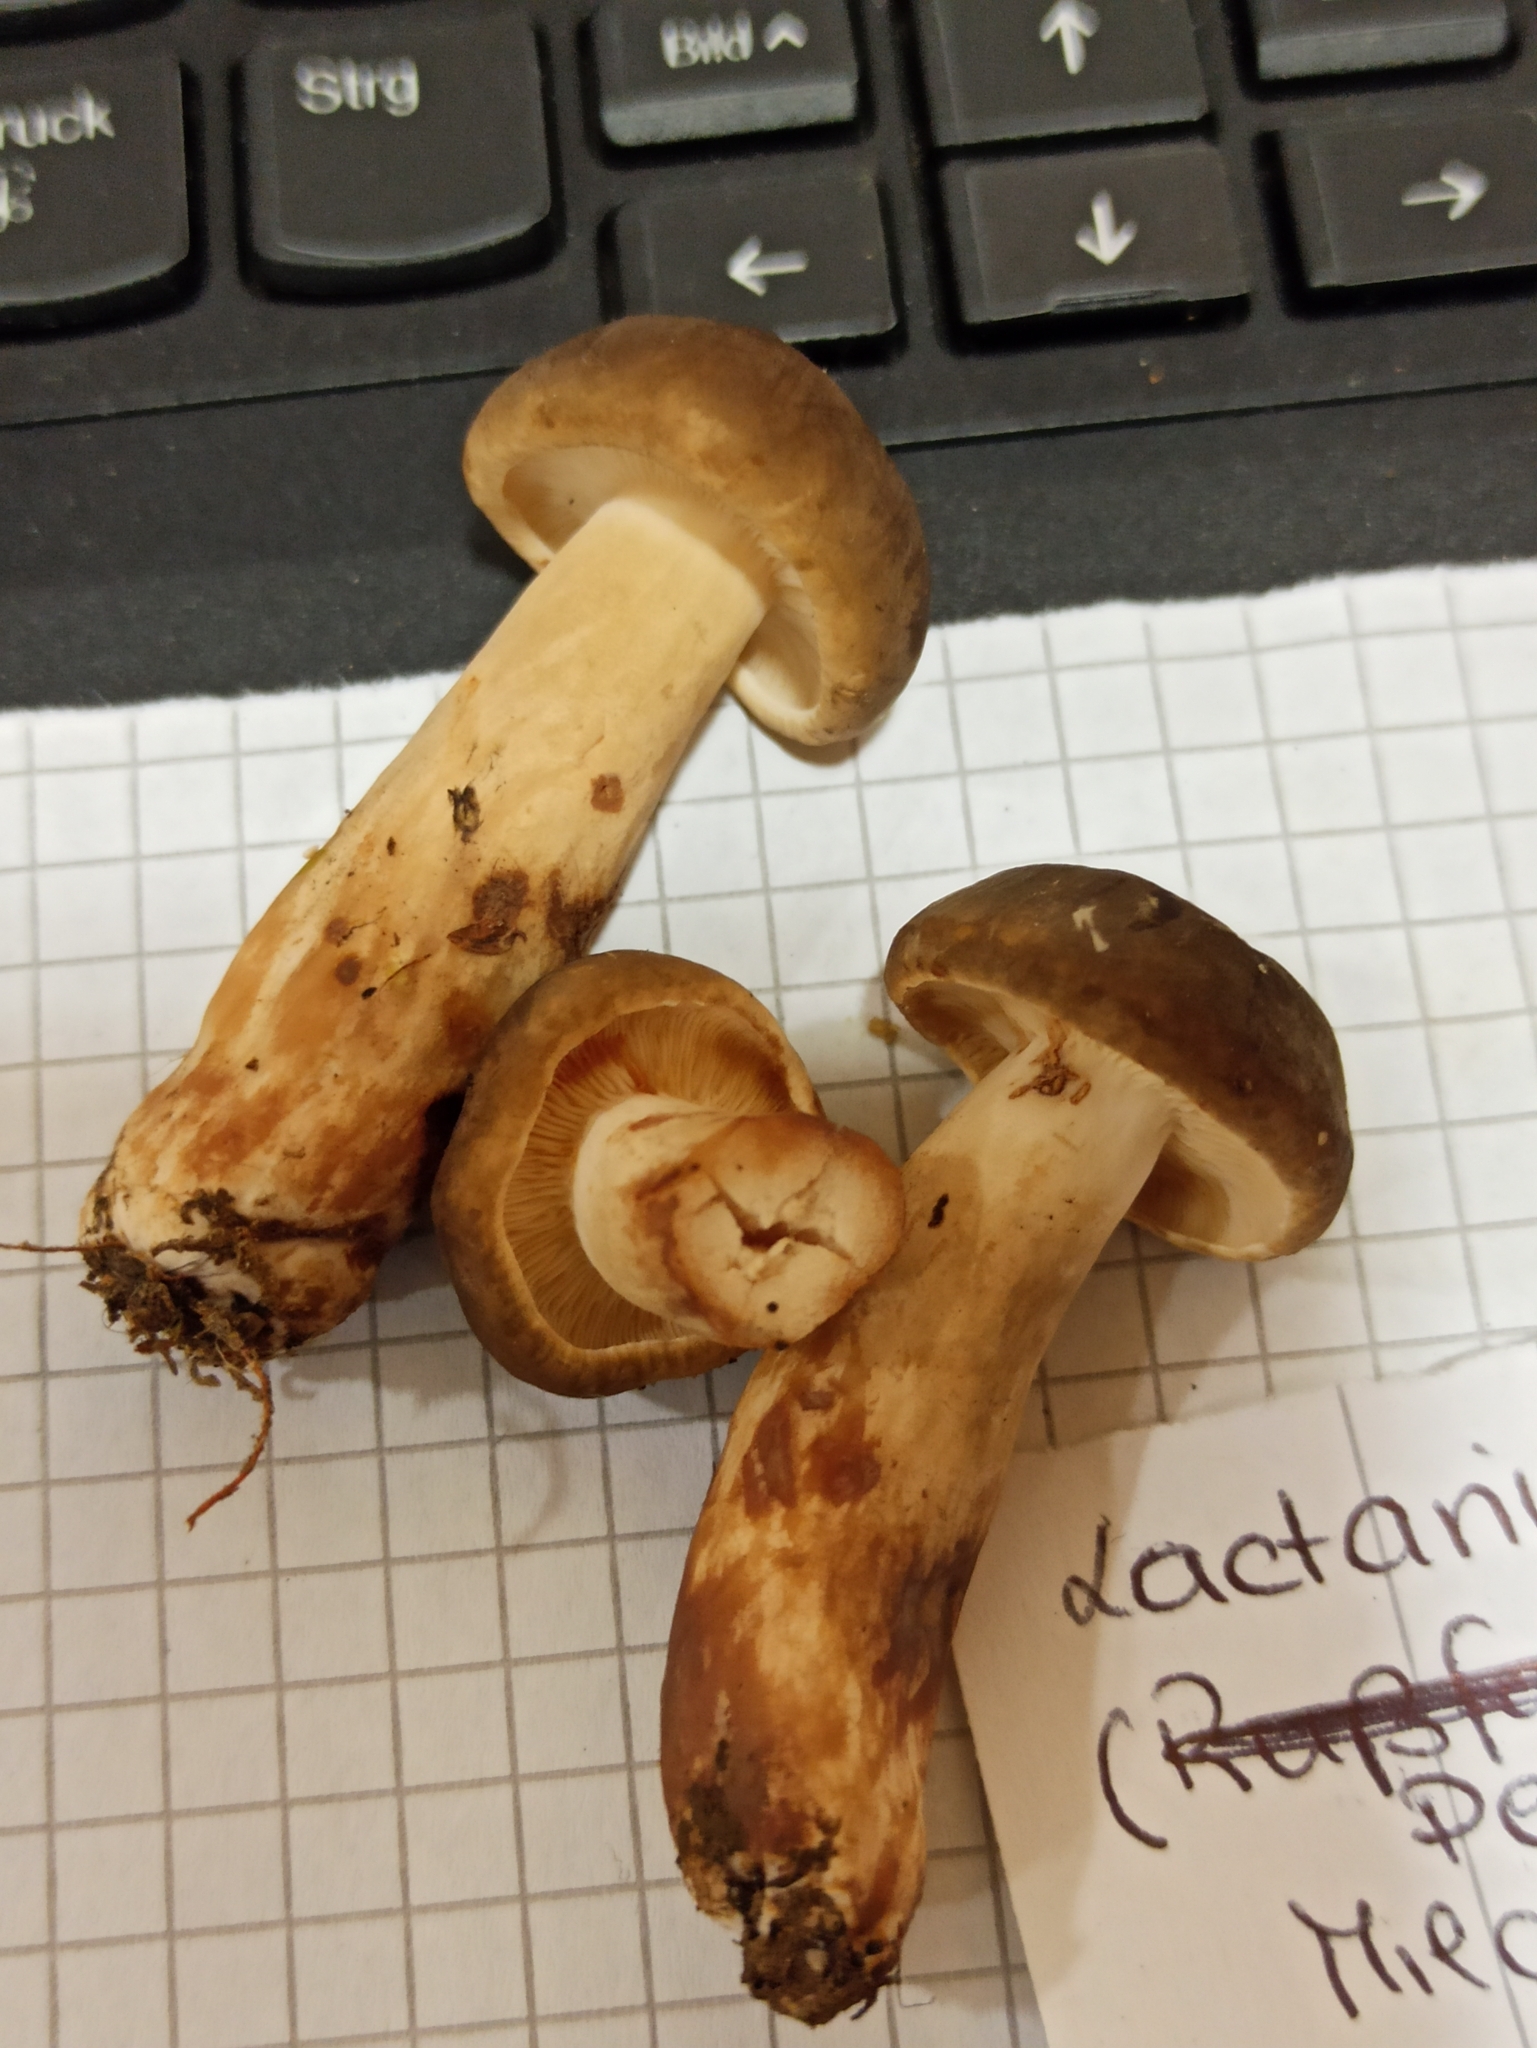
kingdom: Fungi
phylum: Basidiomycota
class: Agaricomycetes
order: Russulales
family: Russulaceae
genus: Lactarius
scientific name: Lactarius picinus
